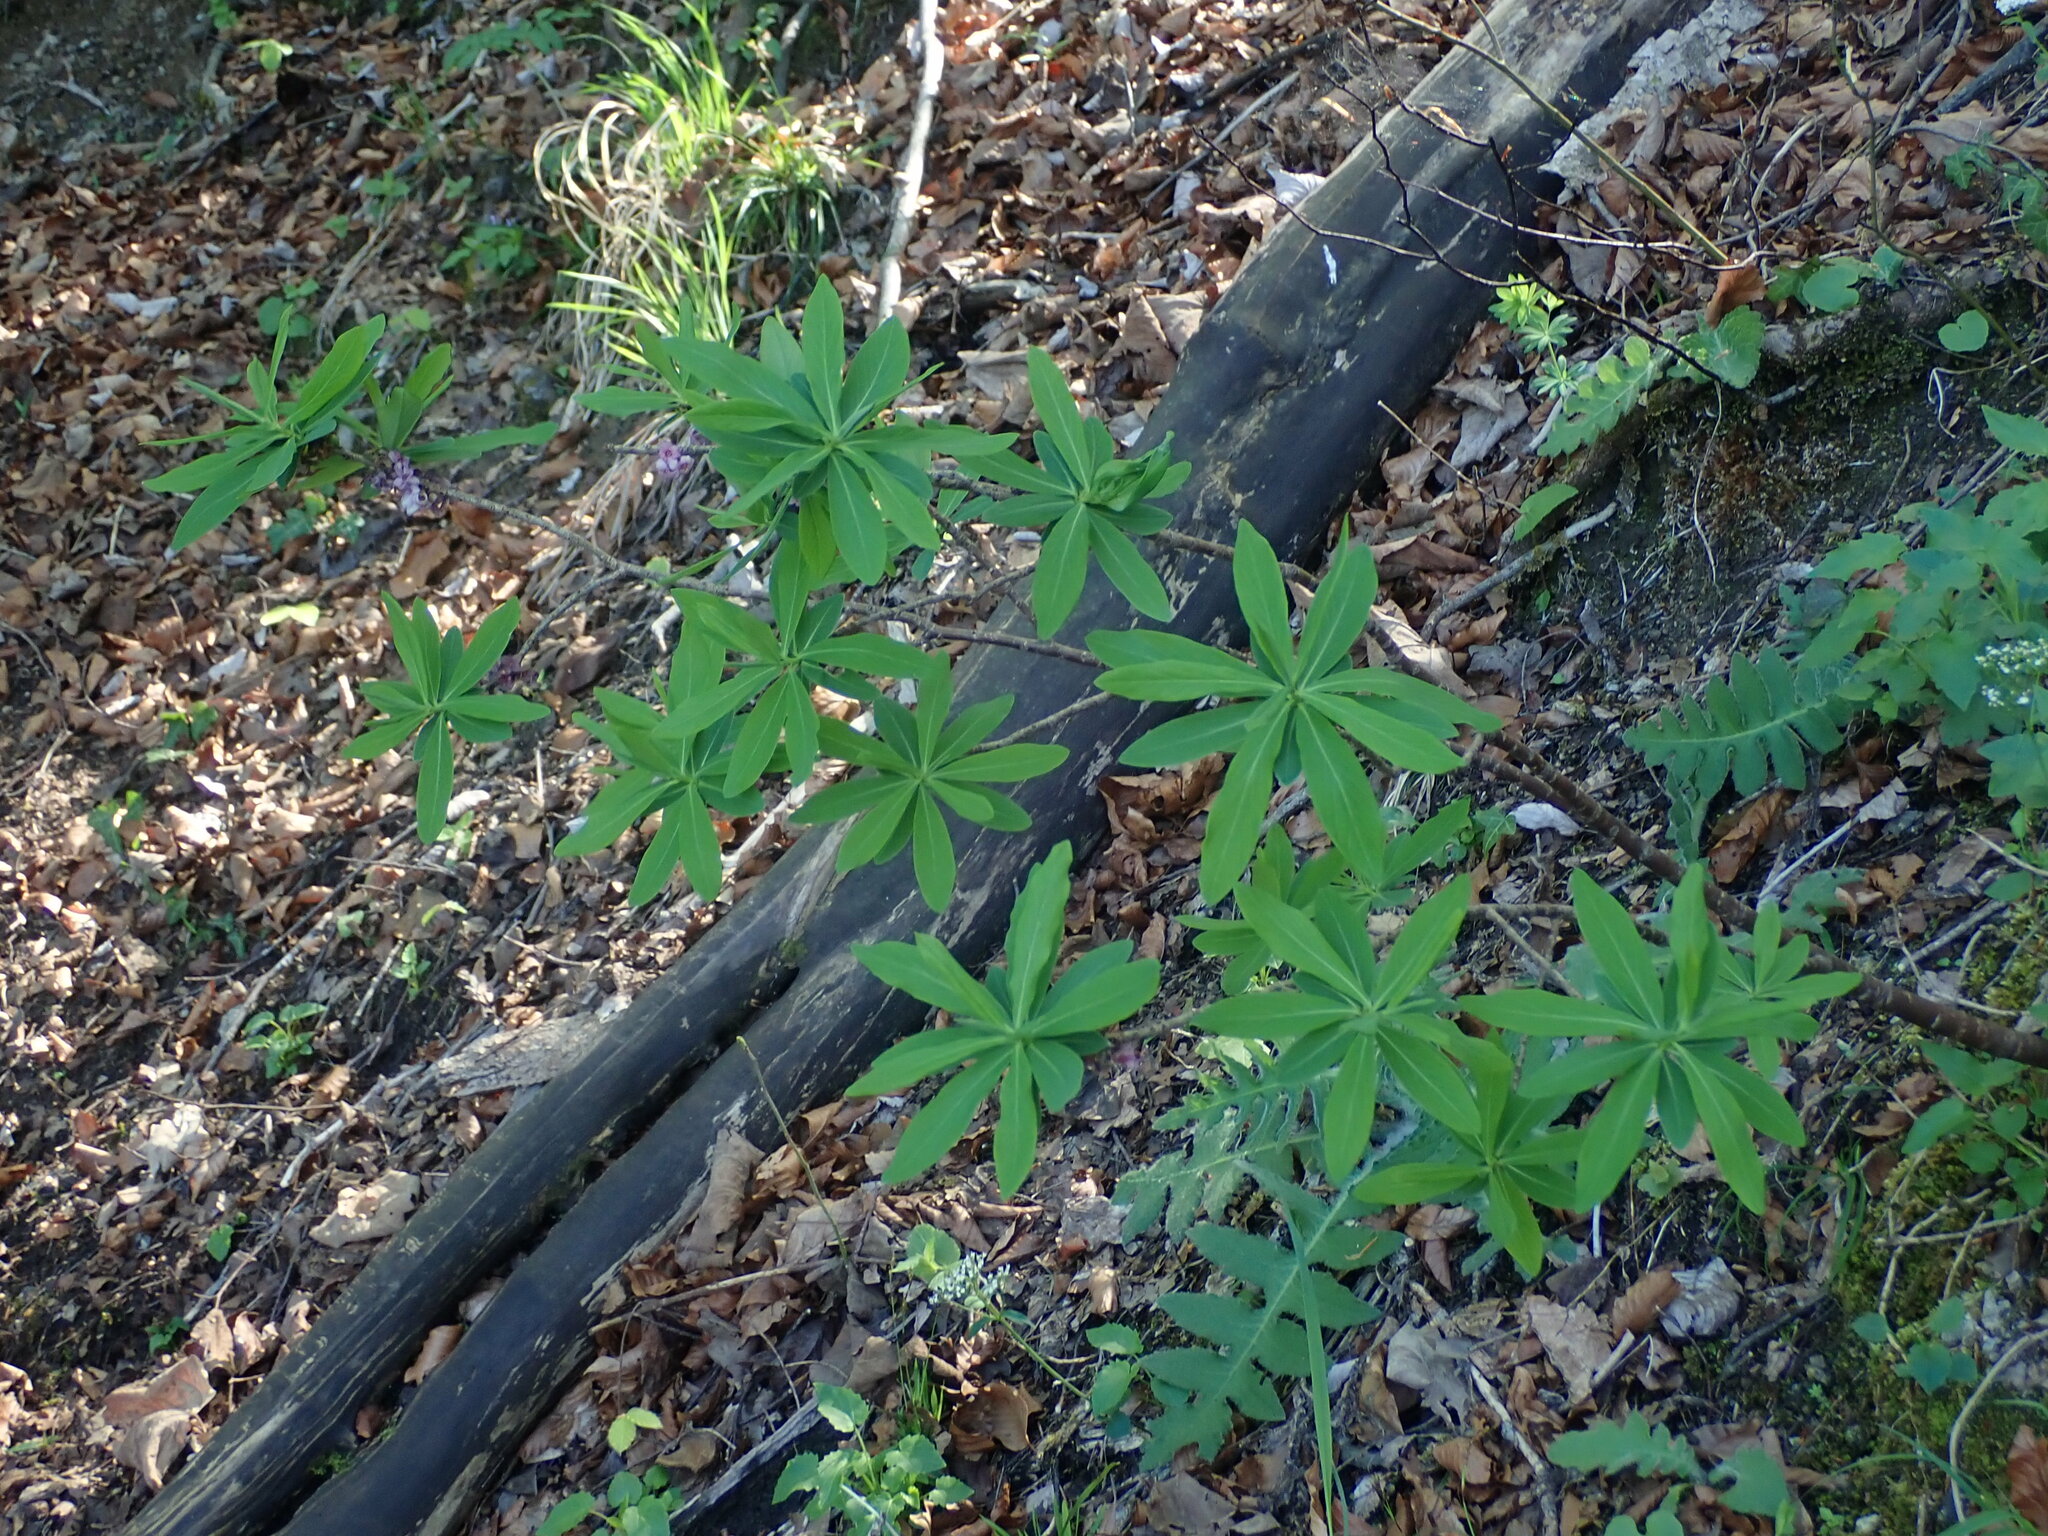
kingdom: Plantae
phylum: Tracheophyta
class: Magnoliopsida
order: Malvales
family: Thymelaeaceae
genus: Daphne
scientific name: Daphne mezereum
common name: Mezereon
